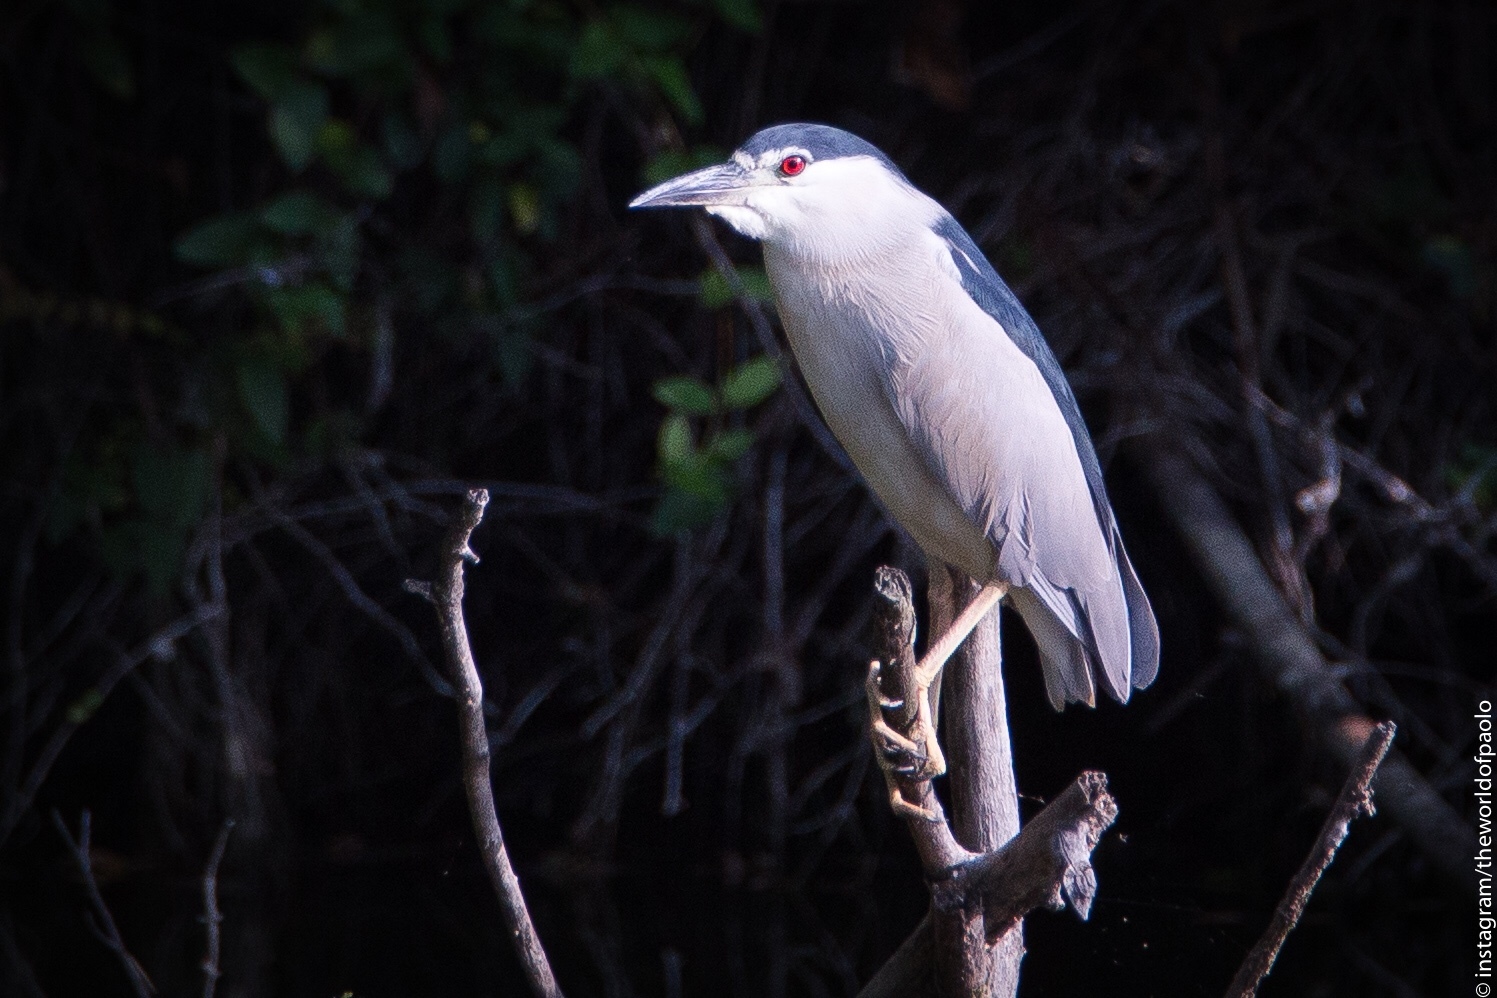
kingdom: Animalia
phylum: Chordata
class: Aves
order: Pelecaniformes
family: Ardeidae
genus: Nycticorax
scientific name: Nycticorax nycticorax
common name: Black-crowned night heron
